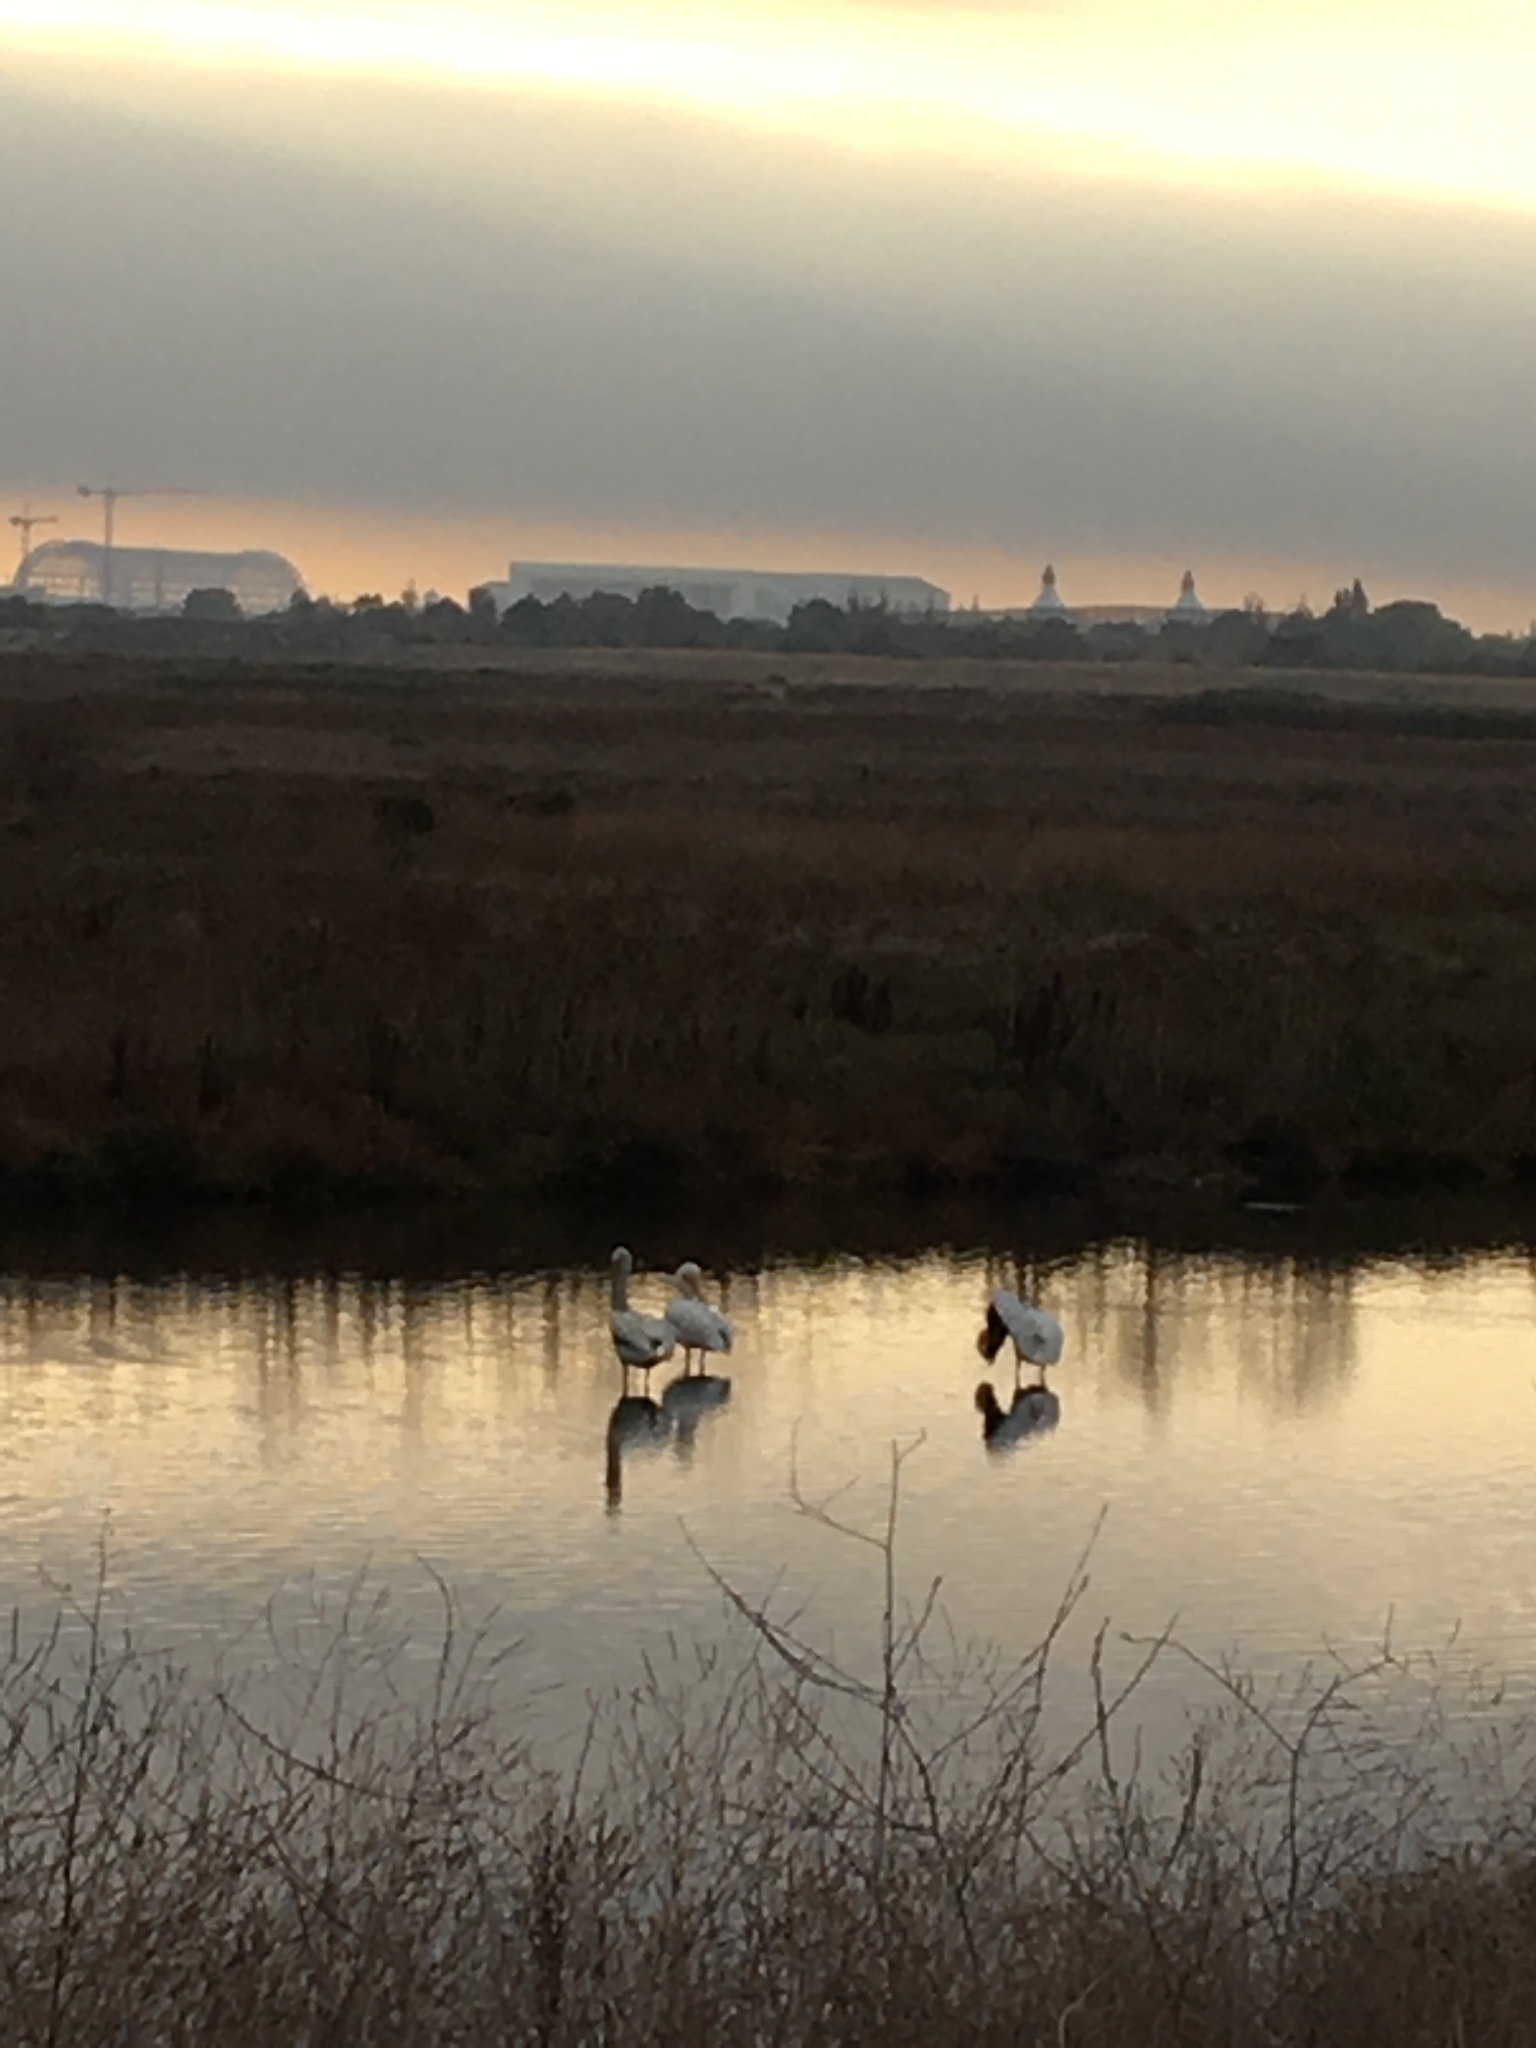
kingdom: Animalia
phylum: Chordata
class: Aves
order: Pelecaniformes
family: Pelecanidae
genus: Pelecanus
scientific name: Pelecanus erythrorhynchos
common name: American white pelican
